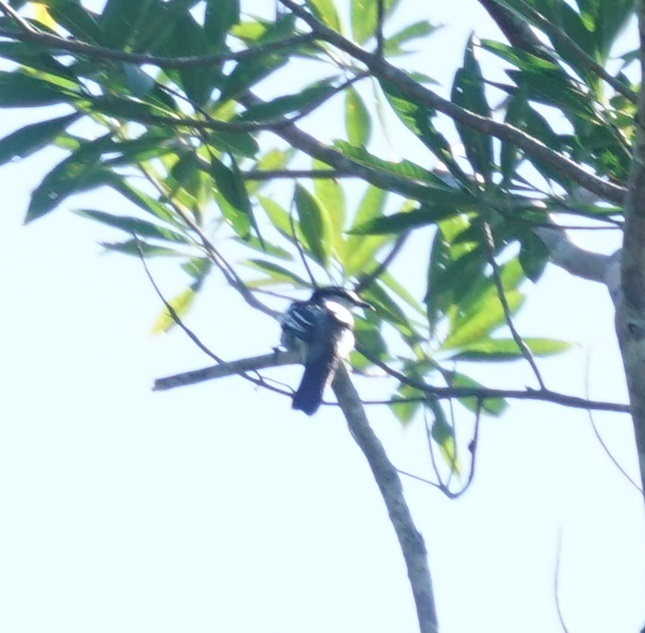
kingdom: Animalia
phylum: Chordata
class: Aves
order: Passeriformes
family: Campephagidae
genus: Lalage
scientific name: Lalage leucomela
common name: Varied triller
